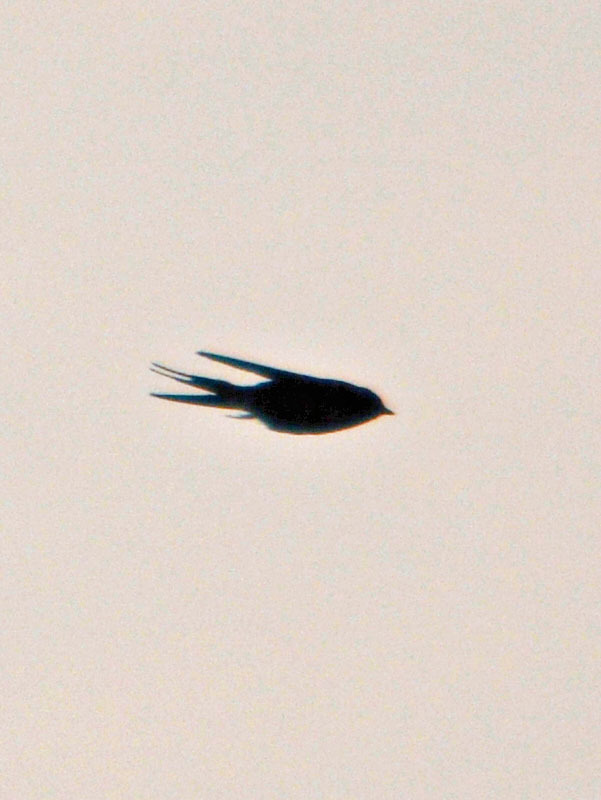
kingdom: Animalia
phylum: Chordata
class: Aves
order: Passeriformes
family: Hirundinidae
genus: Hirundo
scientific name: Hirundo rustica
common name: Barn swallow
